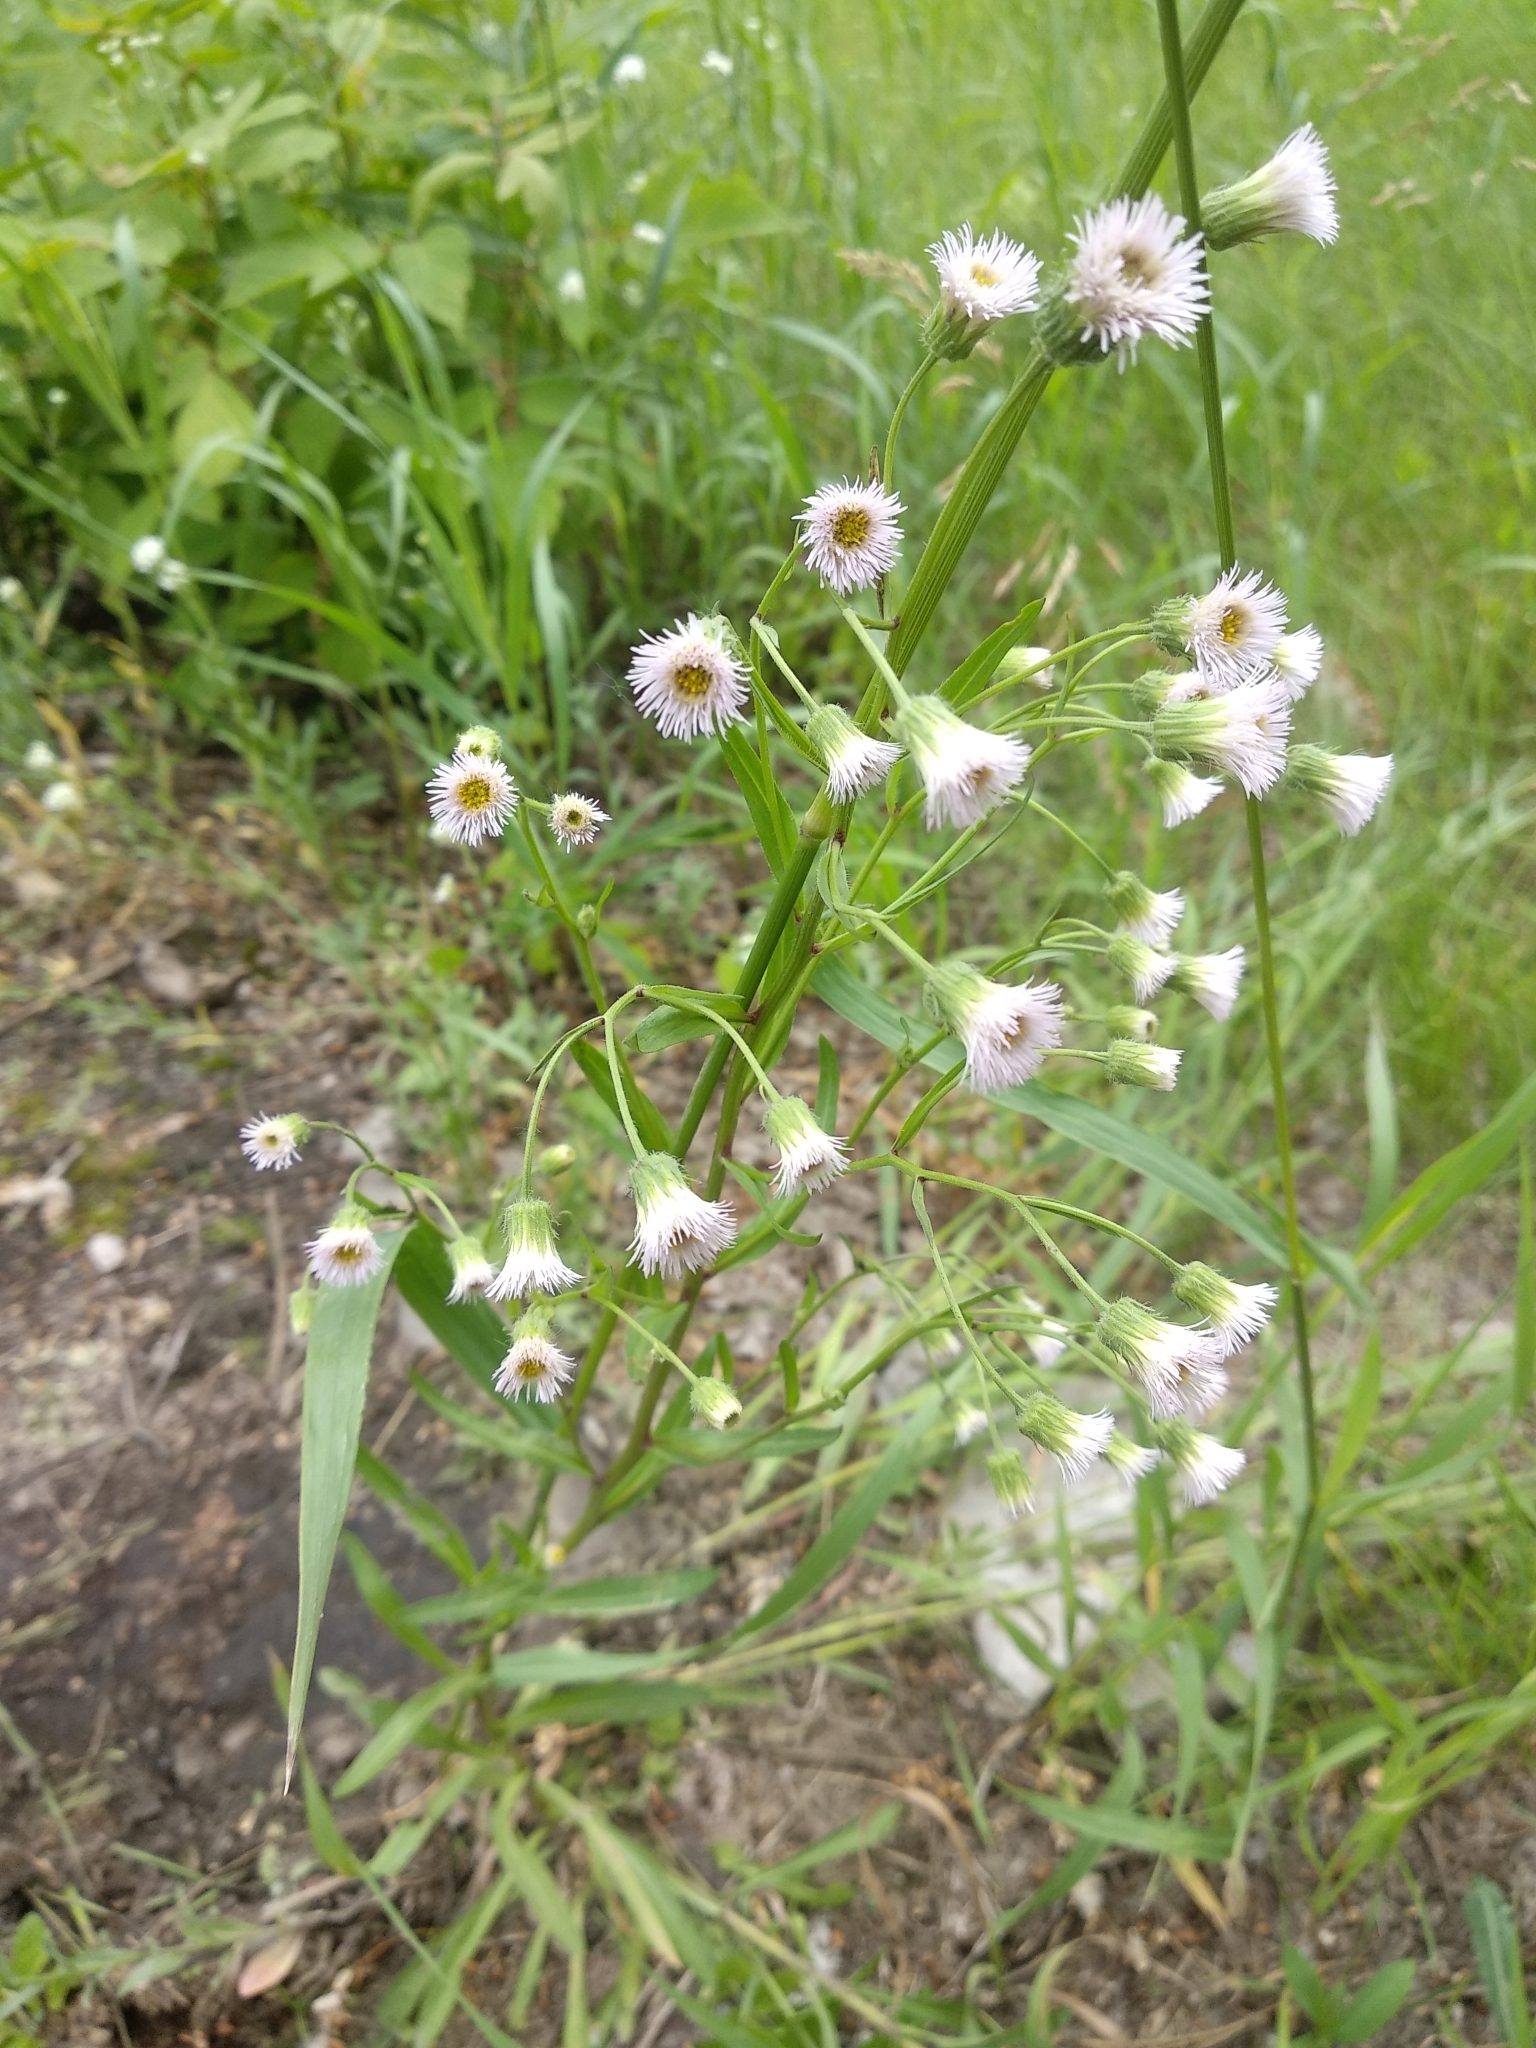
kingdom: Plantae
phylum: Tracheophyta
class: Magnoliopsida
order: Asterales
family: Asteraceae
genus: Erigeron
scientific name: Erigeron
